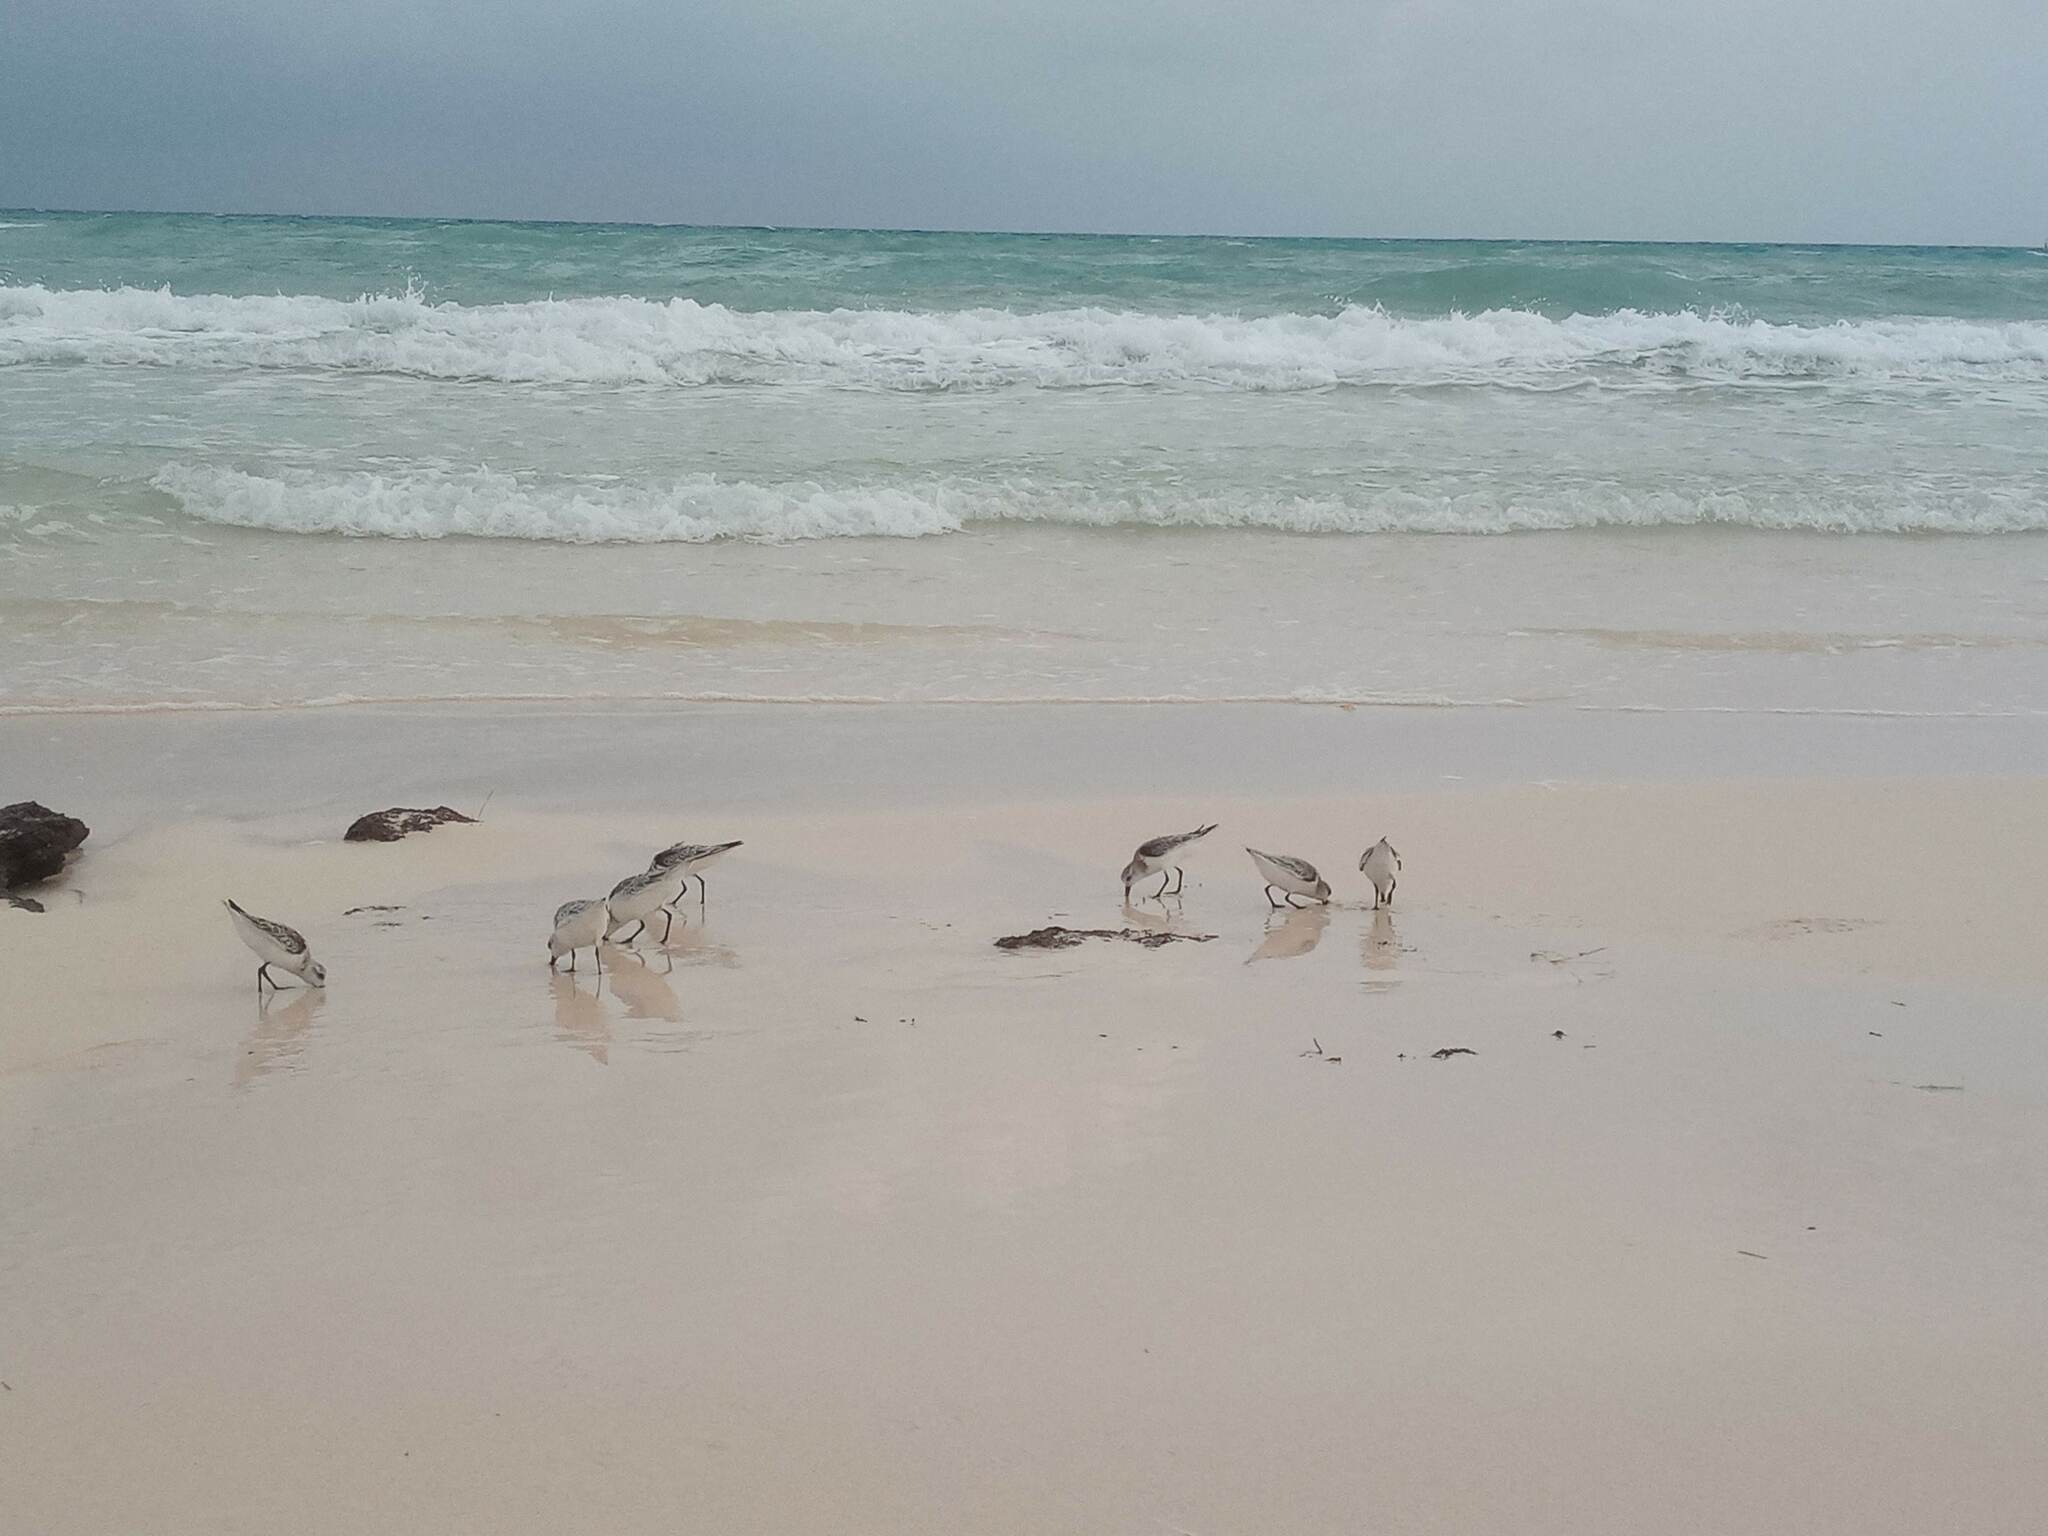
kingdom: Animalia
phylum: Chordata
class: Aves
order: Charadriiformes
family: Scolopacidae
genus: Calidris
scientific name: Calidris alba
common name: Sanderling
